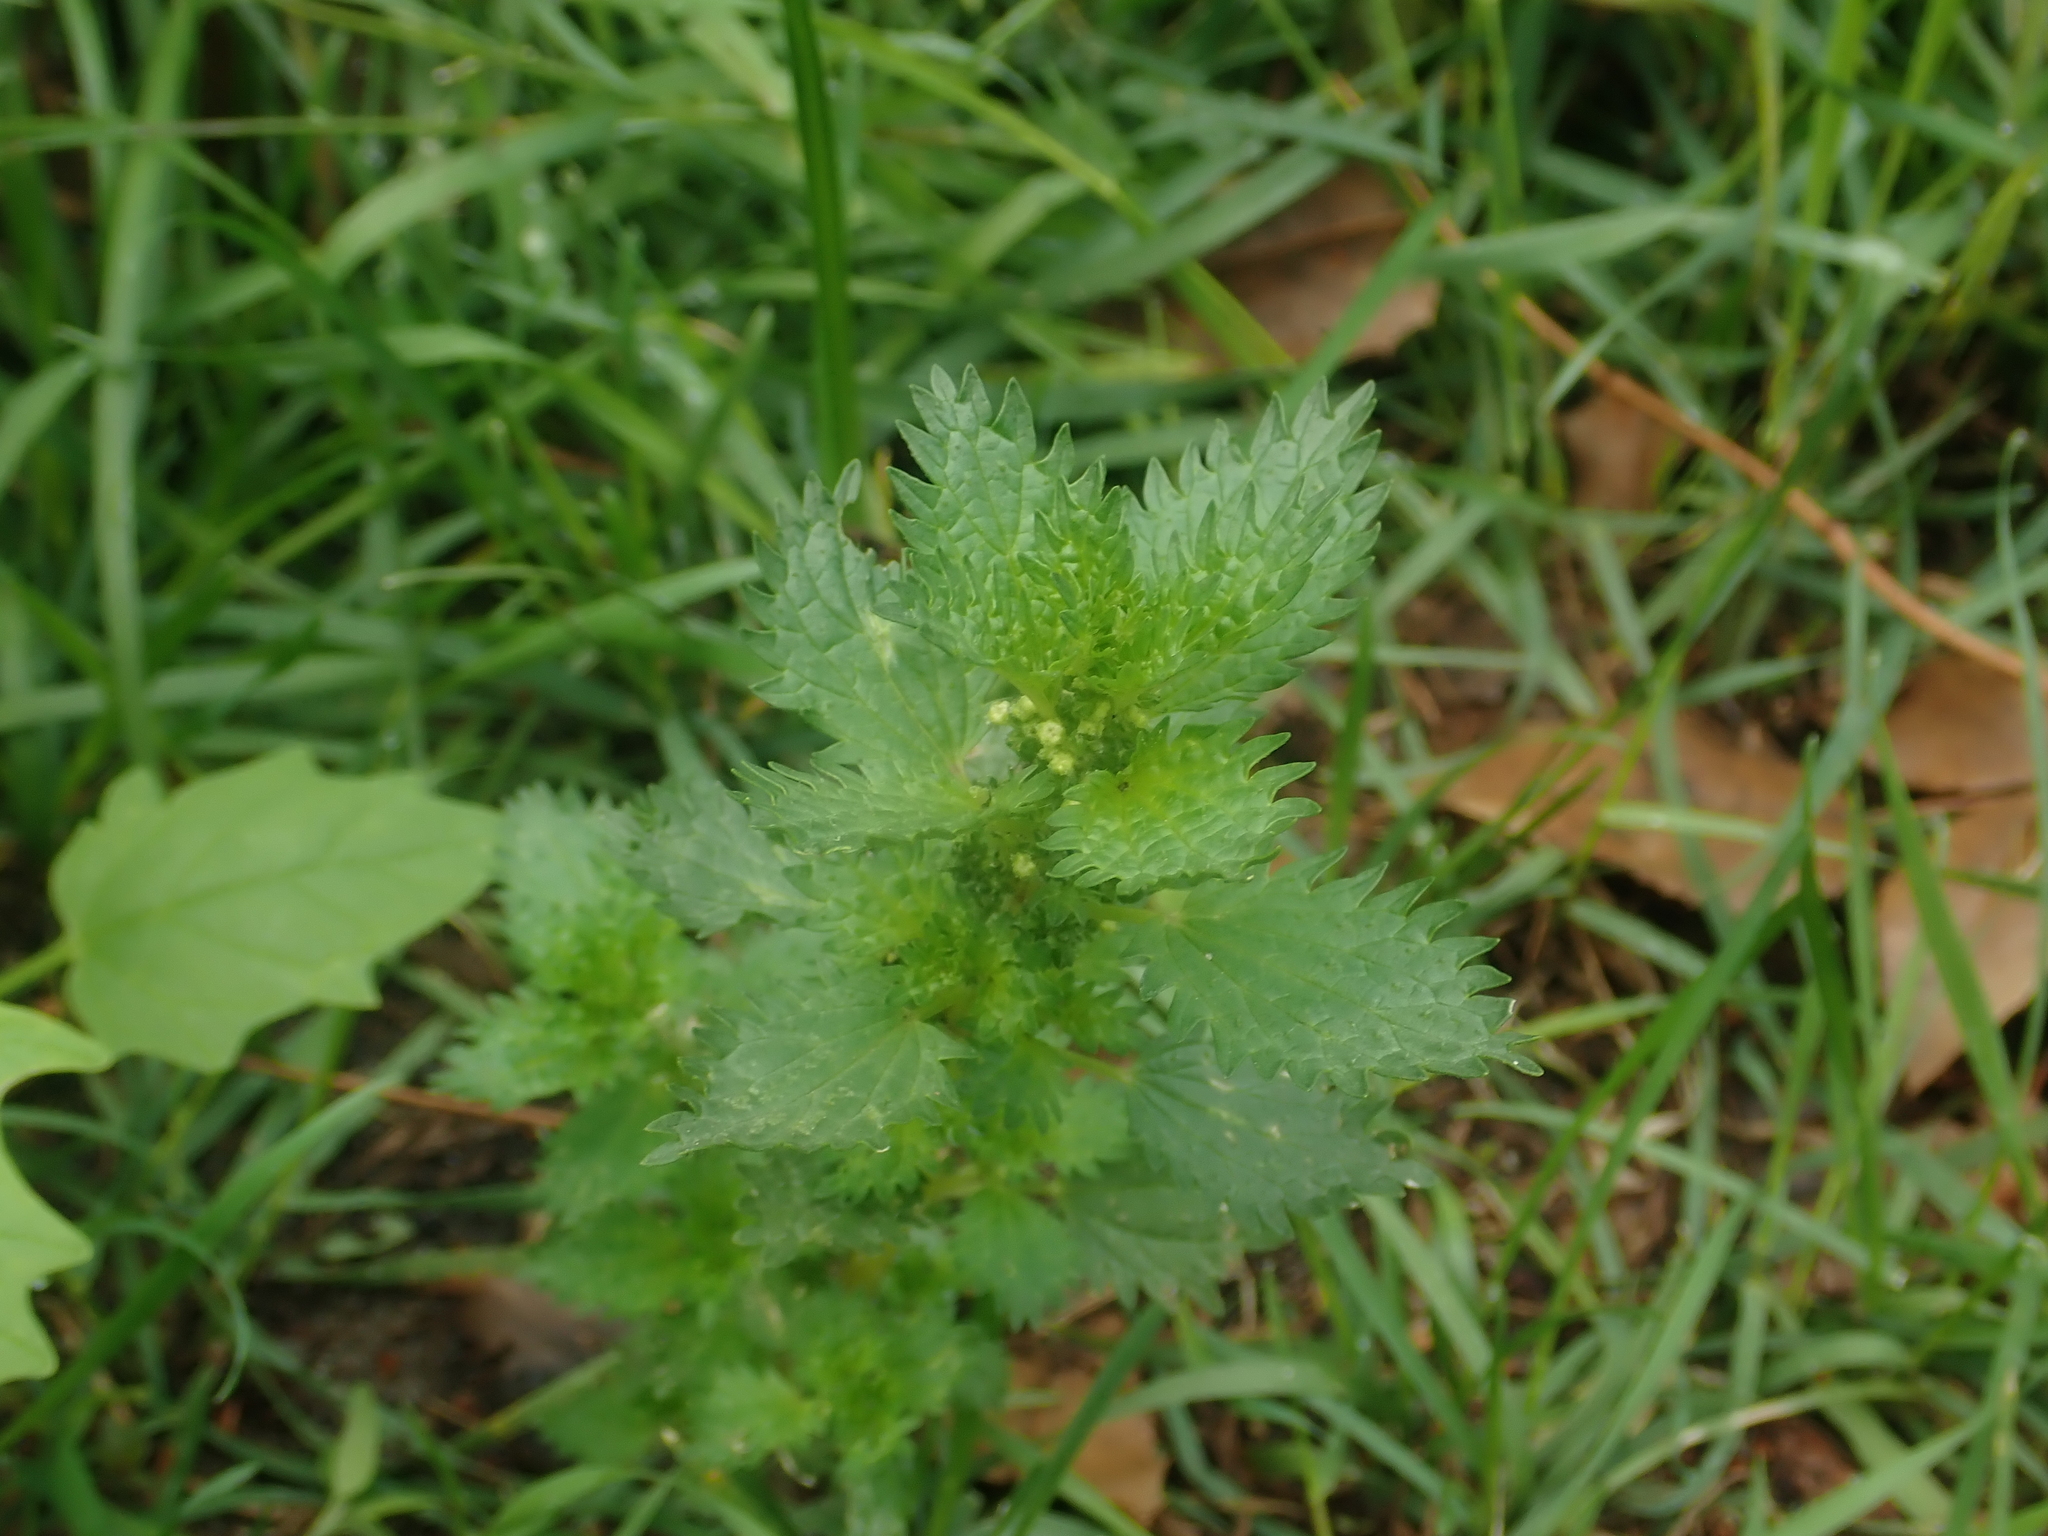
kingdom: Plantae
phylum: Tracheophyta
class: Magnoliopsida
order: Rosales
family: Urticaceae
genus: Urtica
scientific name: Urtica urens
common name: Dwarf nettle
